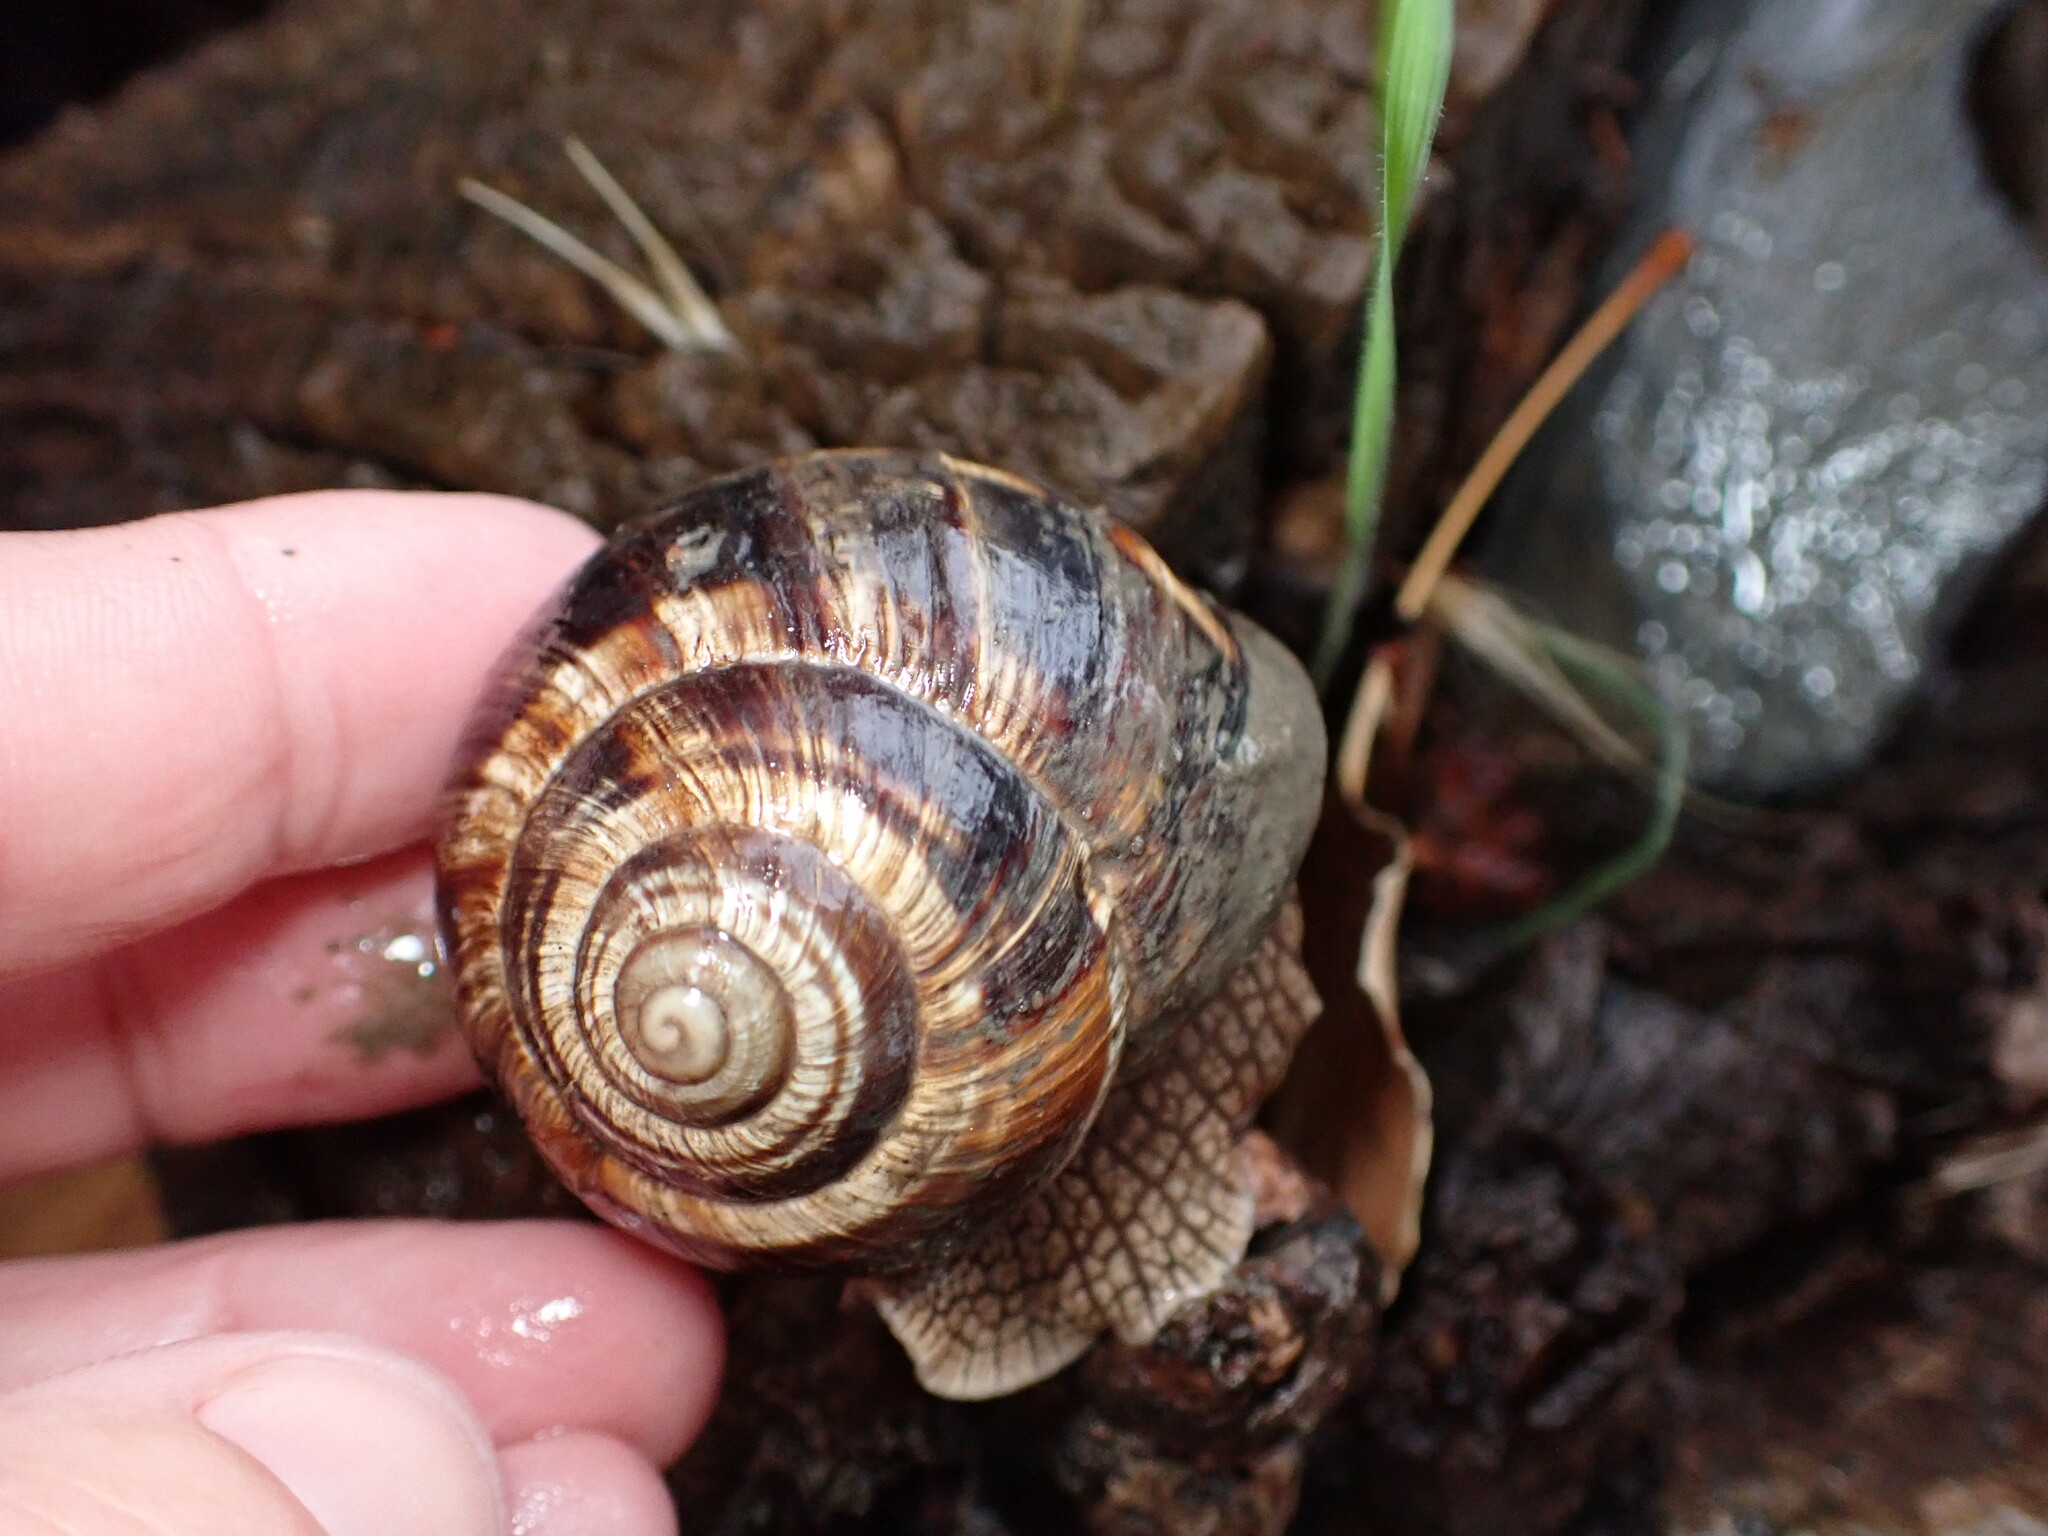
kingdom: Animalia
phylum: Mollusca
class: Gastropoda
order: Stylommatophora
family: Helicidae
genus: Helix
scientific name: Helix lucorum
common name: Turkish snail
